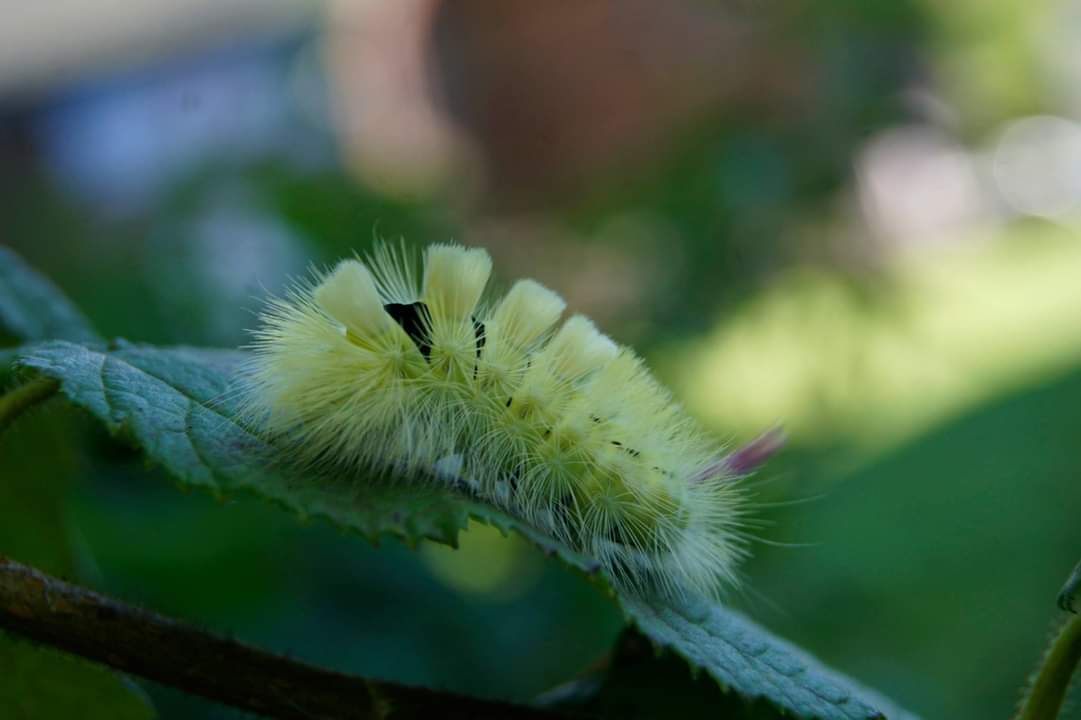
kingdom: Animalia
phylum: Arthropoda
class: Insecta
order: Lepidoptera
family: Erebidae
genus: Calliteara
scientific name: Calliteara pudibunda
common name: Pale tussock
